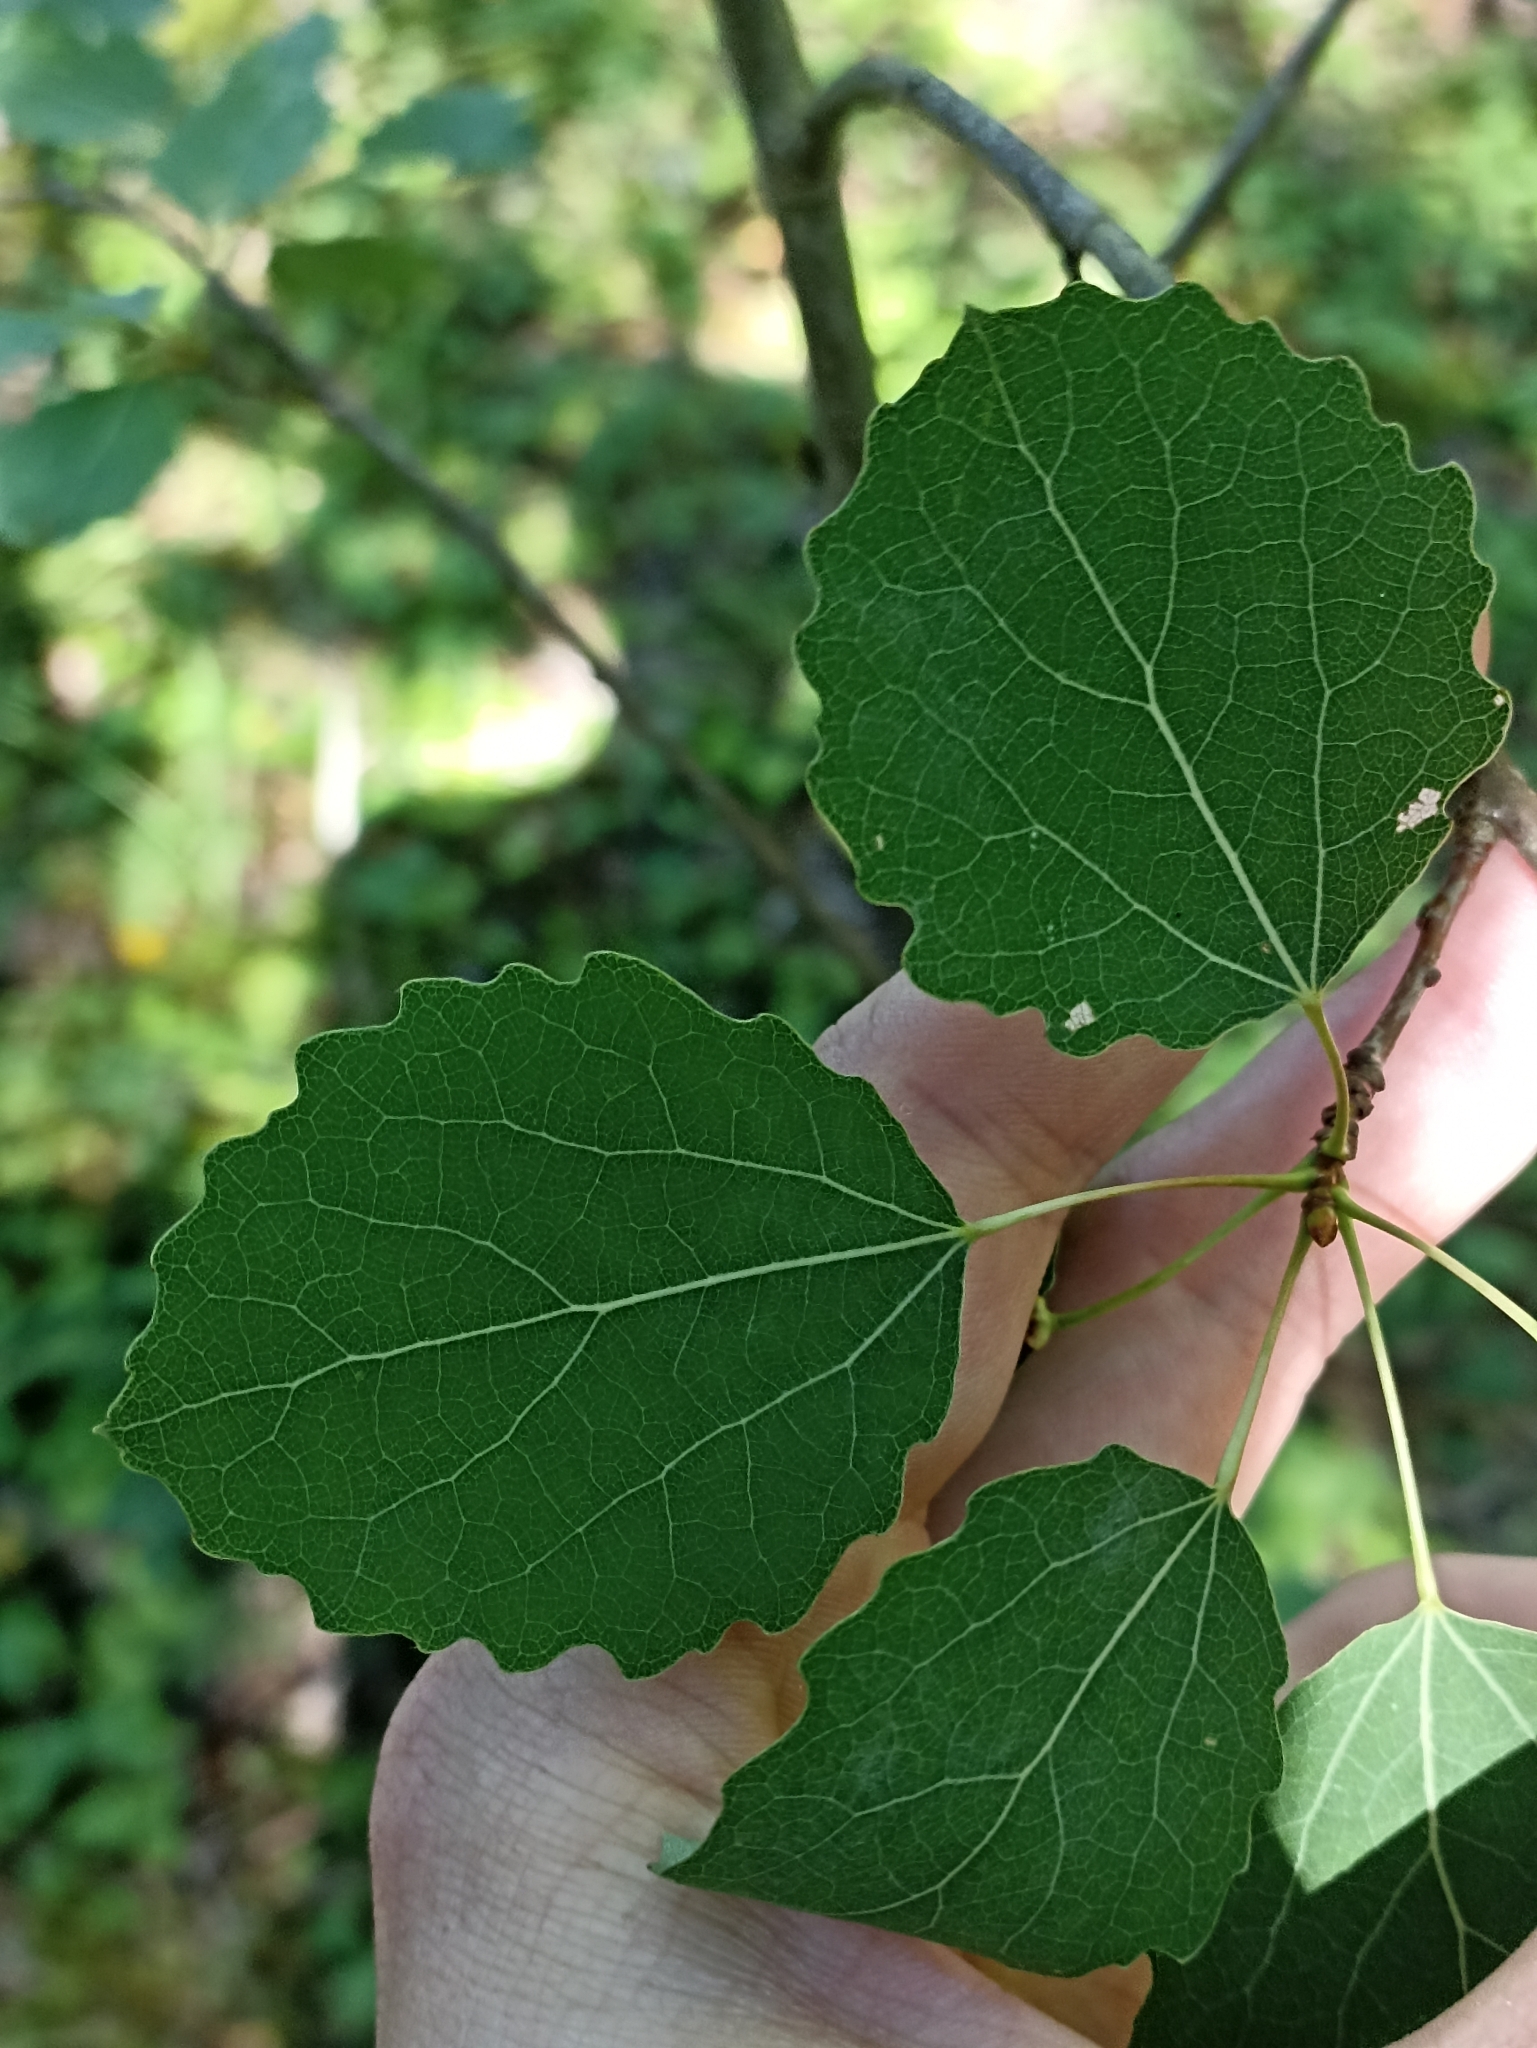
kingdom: Plantae
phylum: Tracheophyta
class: Magnoliopsida
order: Malpighiales
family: Salicaceae
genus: Populus
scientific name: Populus tremula
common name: European aspen
